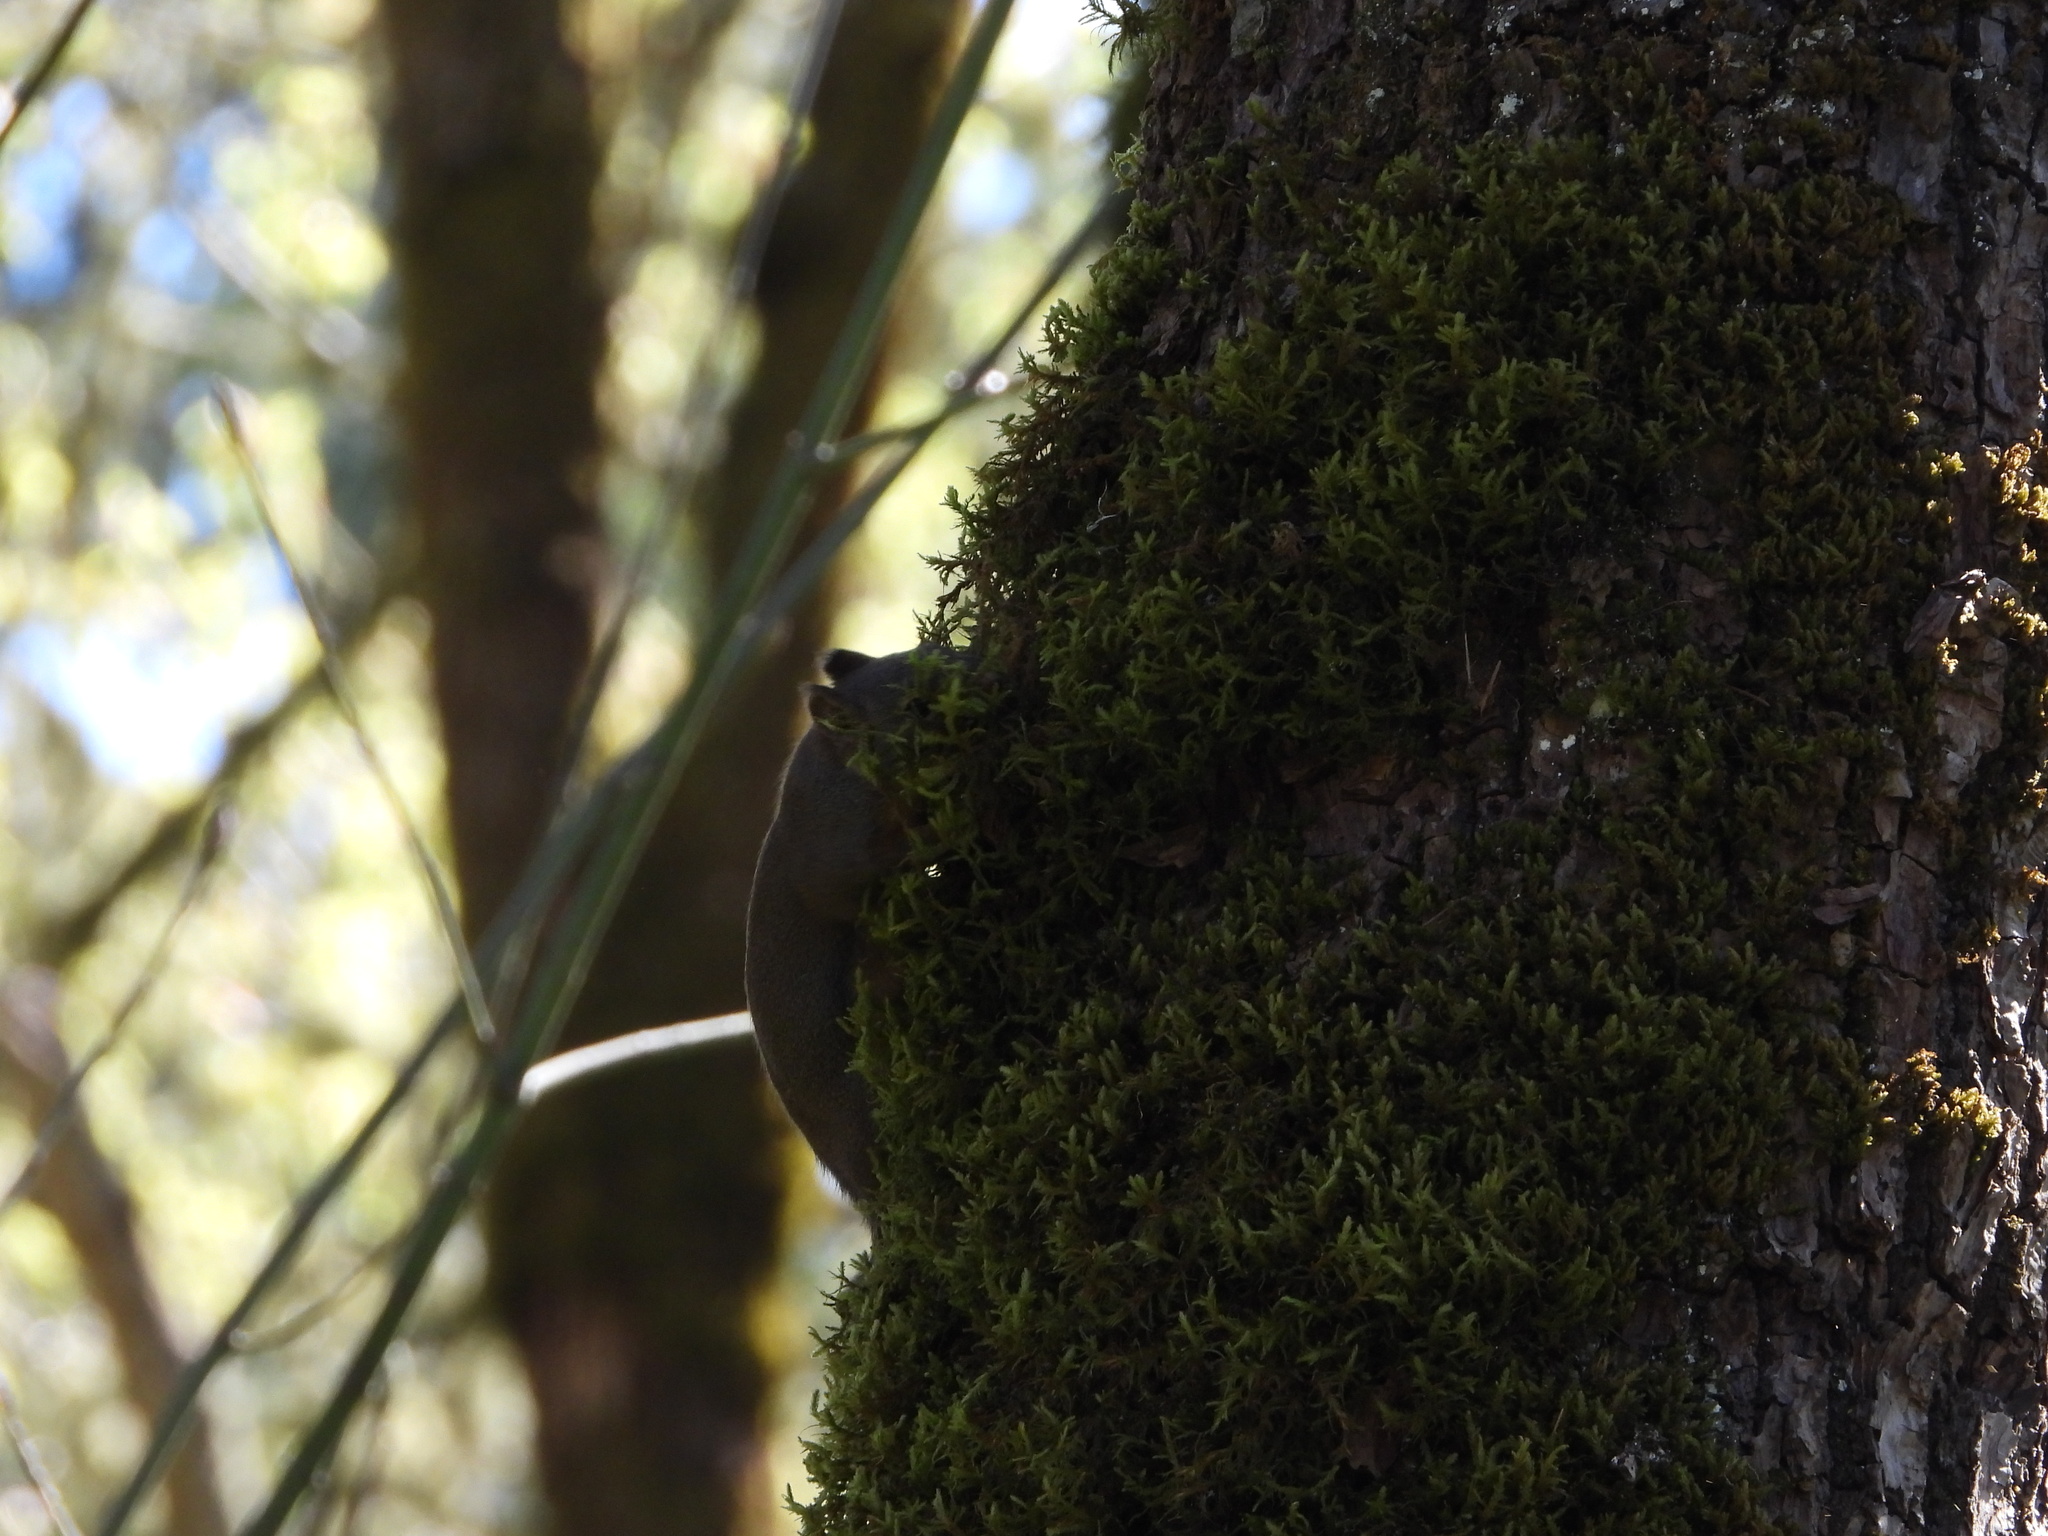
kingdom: Animalia
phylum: Chordata
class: Mammalia
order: Rodentia
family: Sciuridae
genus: Tamiasciurus
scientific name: Tamiasciurus douglasii
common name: Douglas's squirrel
